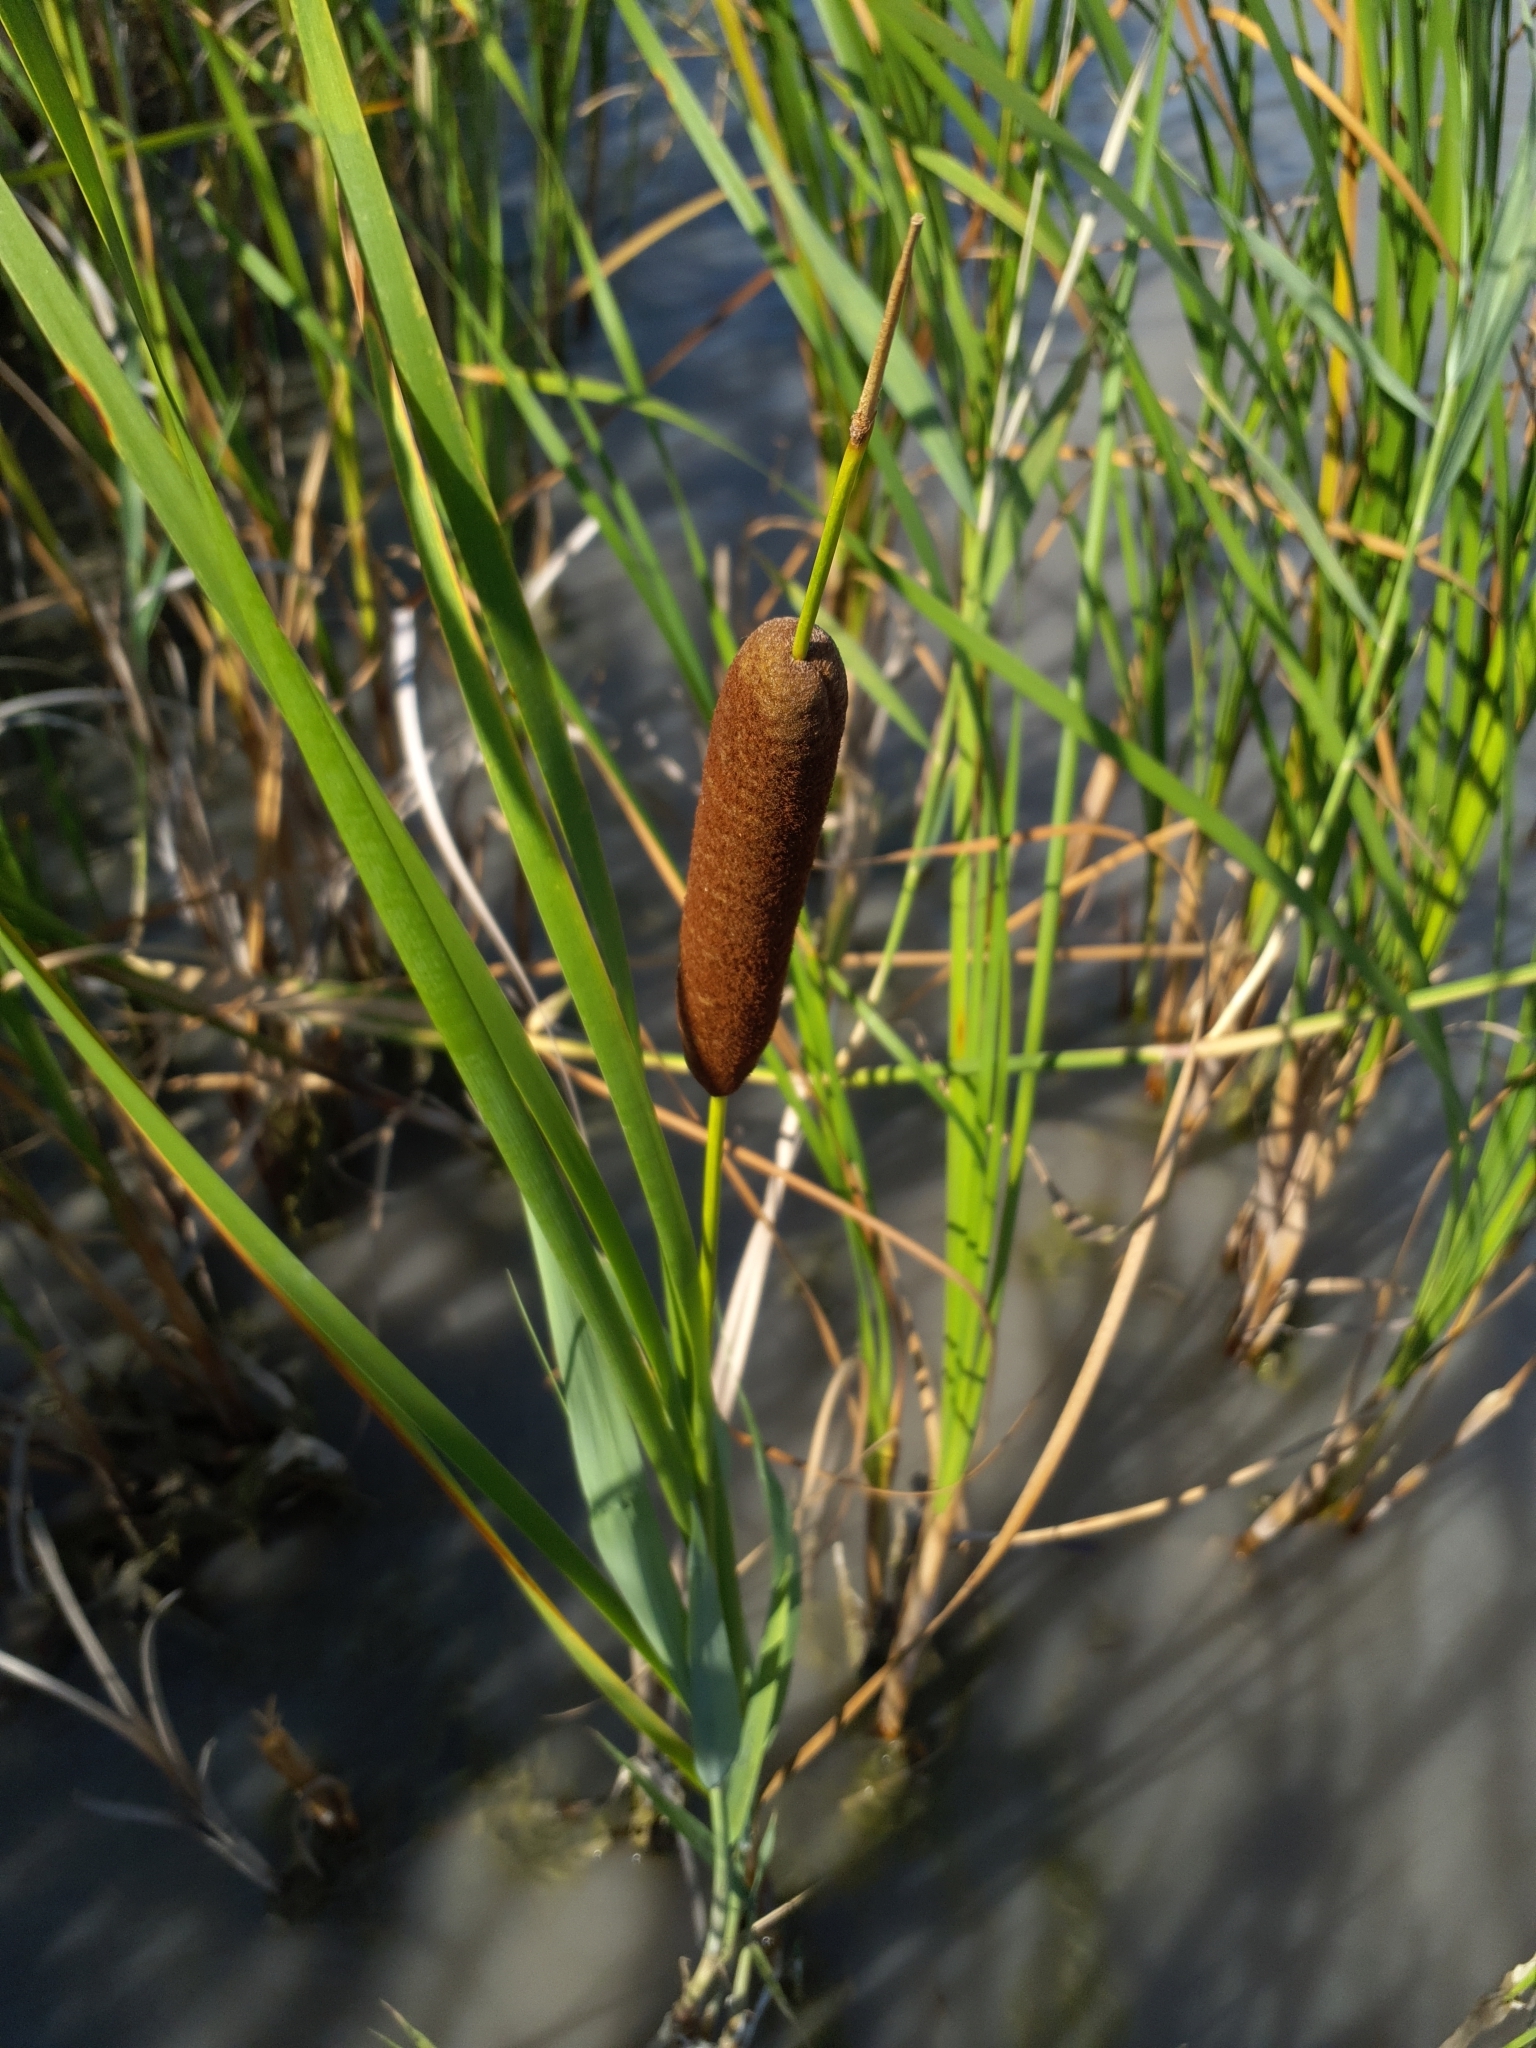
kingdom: Plantae
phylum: Tracheophyta
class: Liliopsida
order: Poales
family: Typhaceae
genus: Typha
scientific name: Typha angustifolia
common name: Lesser bulrush
